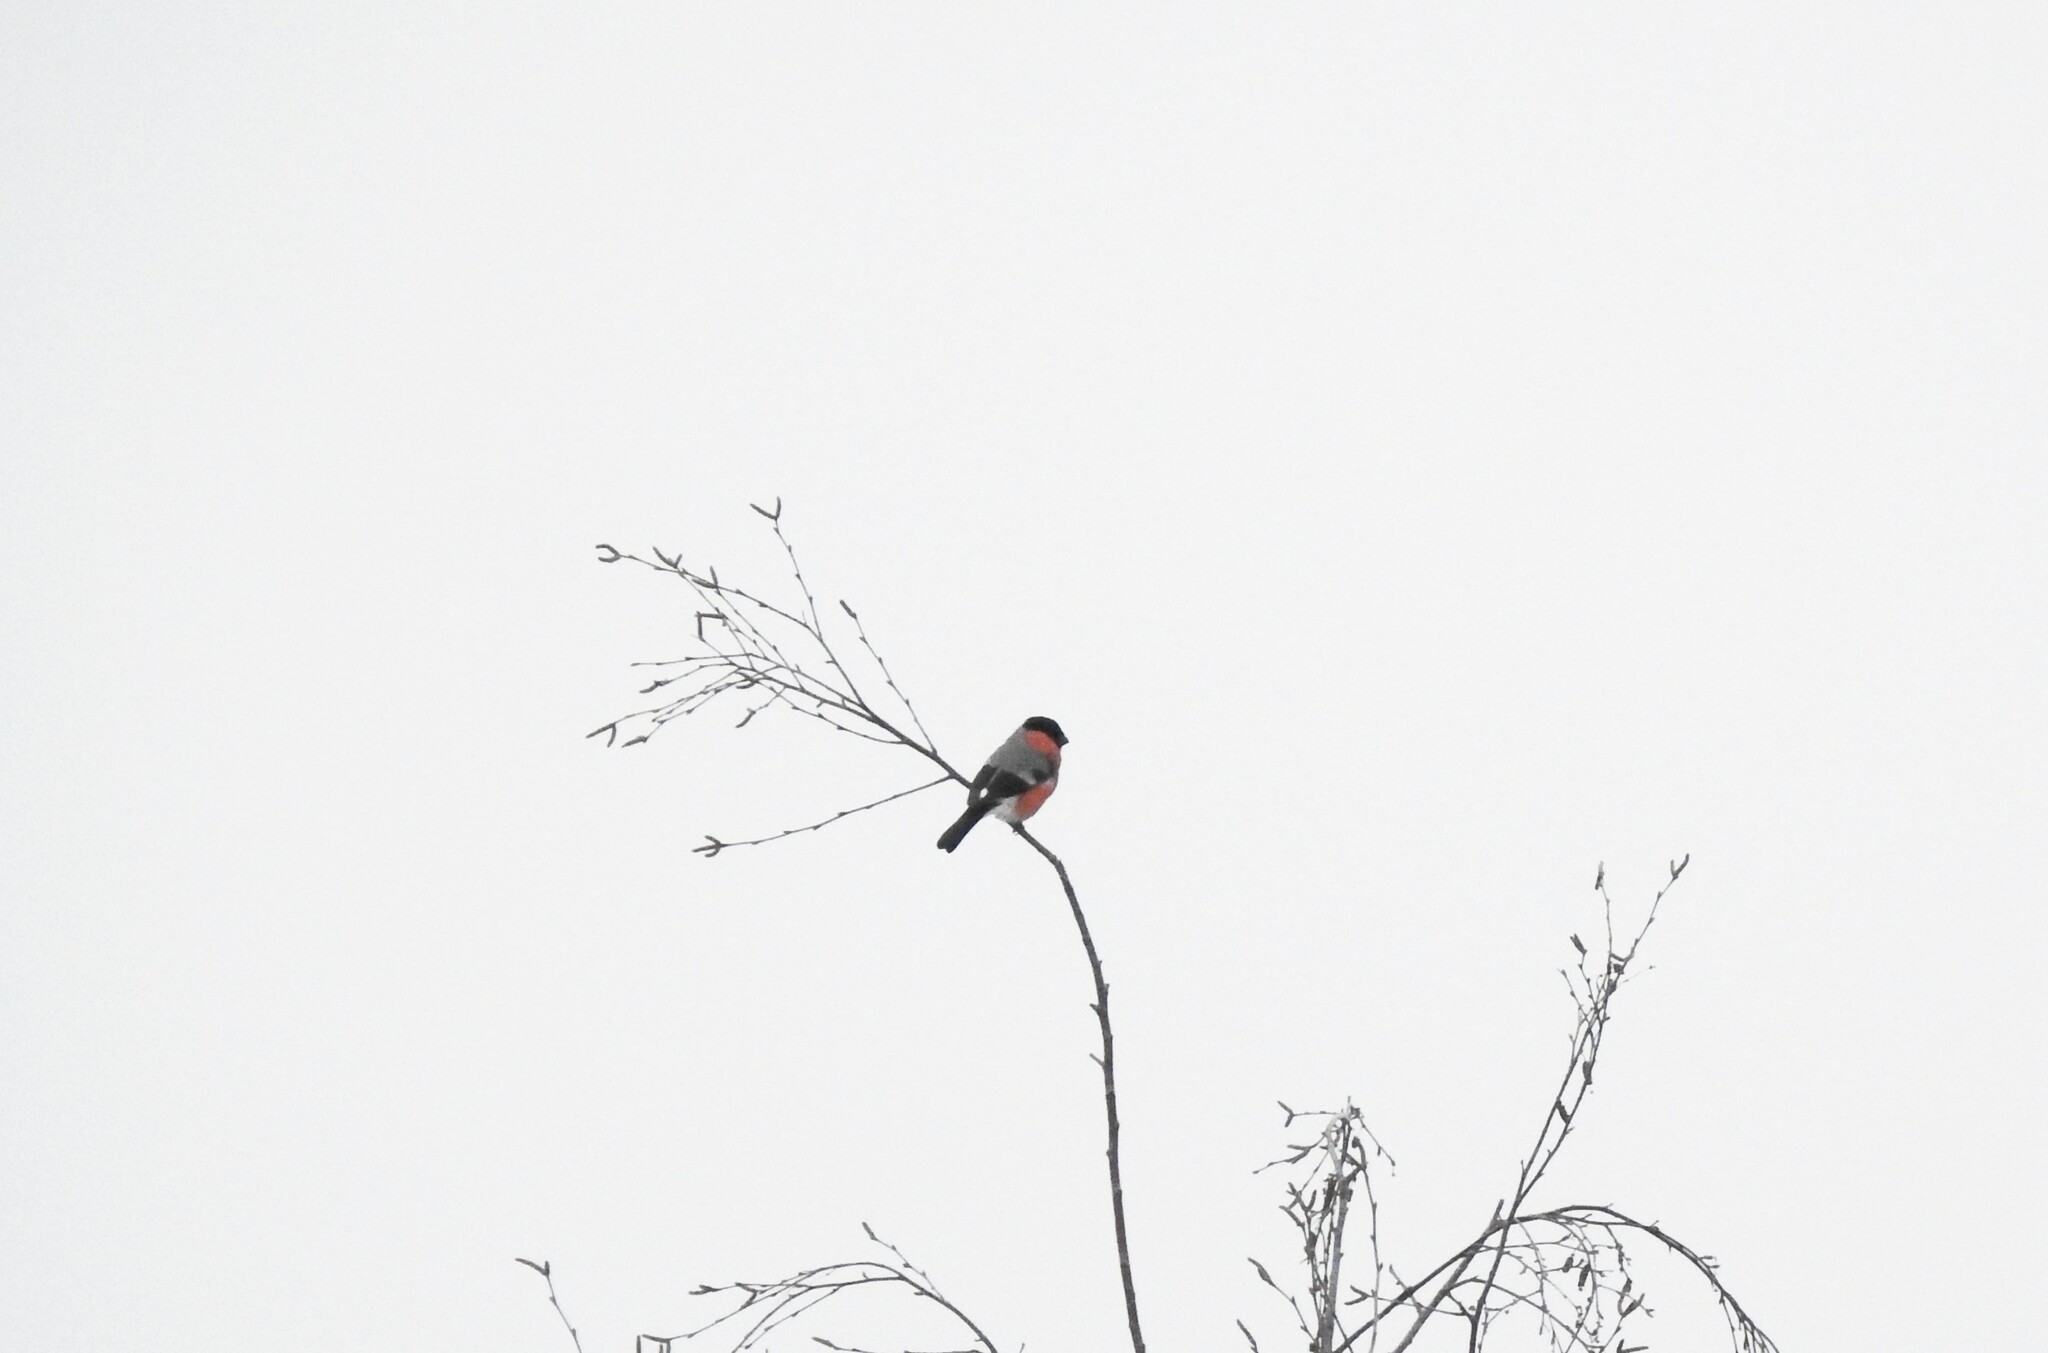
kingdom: Animalia
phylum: Chordata
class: Aves
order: Passeriformes
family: Fringillidae
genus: Pyrrhula
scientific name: Pyrrhula pyrrhula
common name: Eurasian bullfinch
